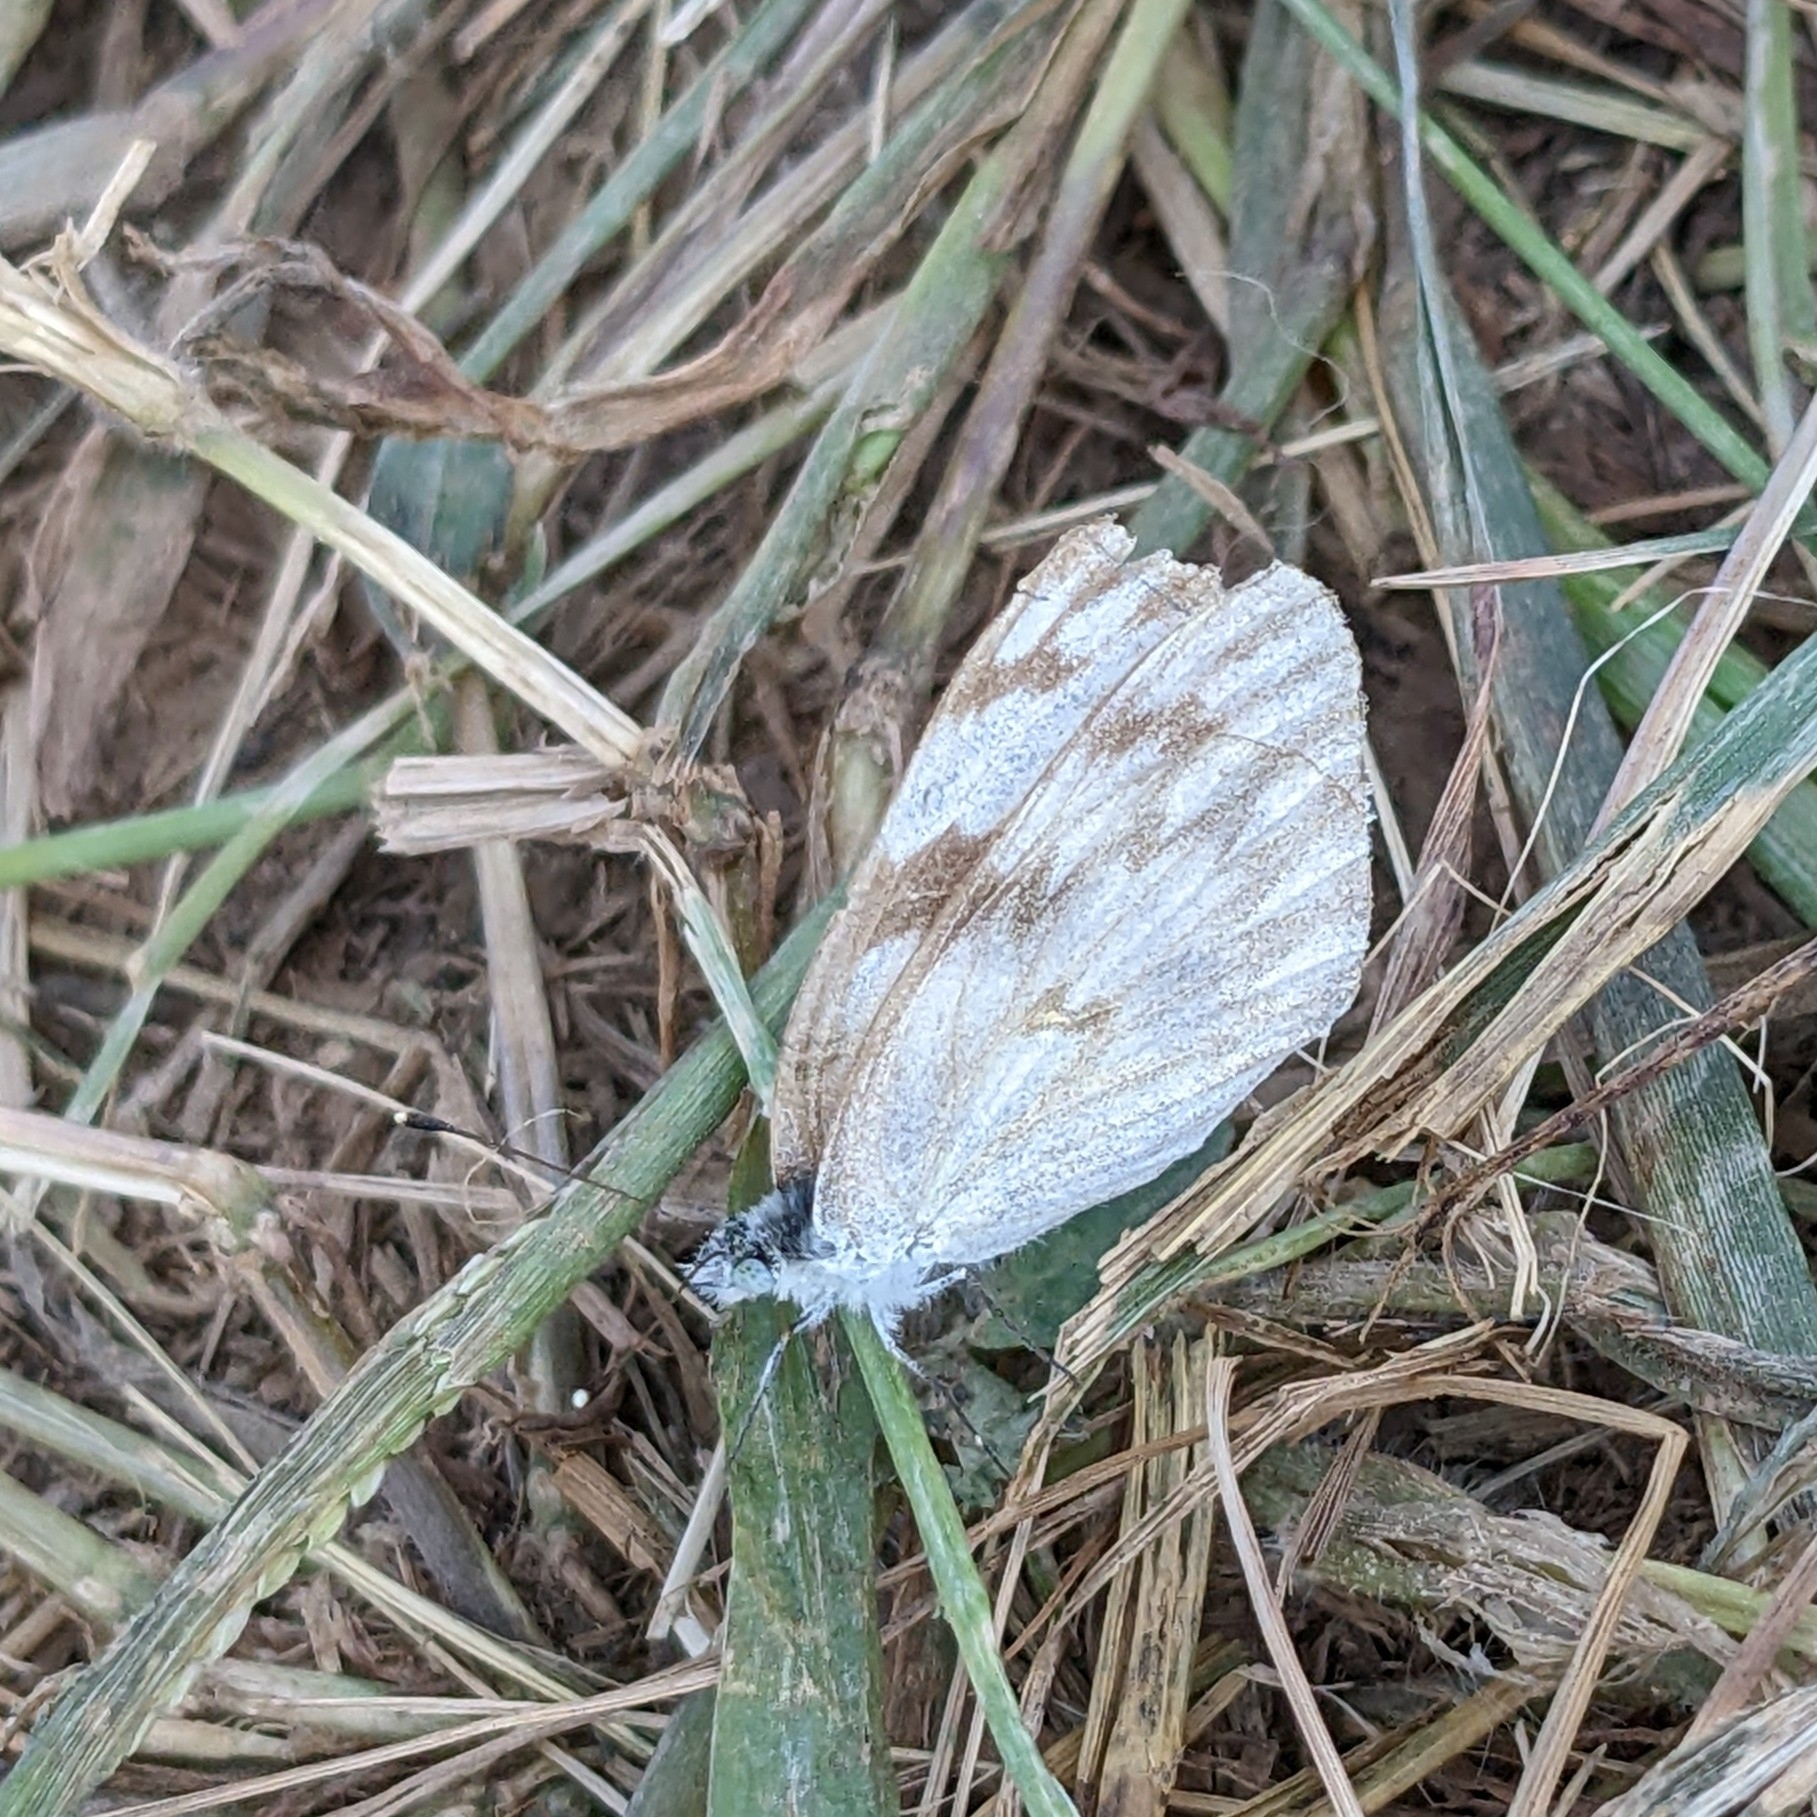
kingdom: Animalia
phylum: Arthropoda
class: Insecta
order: Lepidoptera
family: Pieridae
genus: Pontia
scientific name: Pontia protodice
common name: Checkered white
